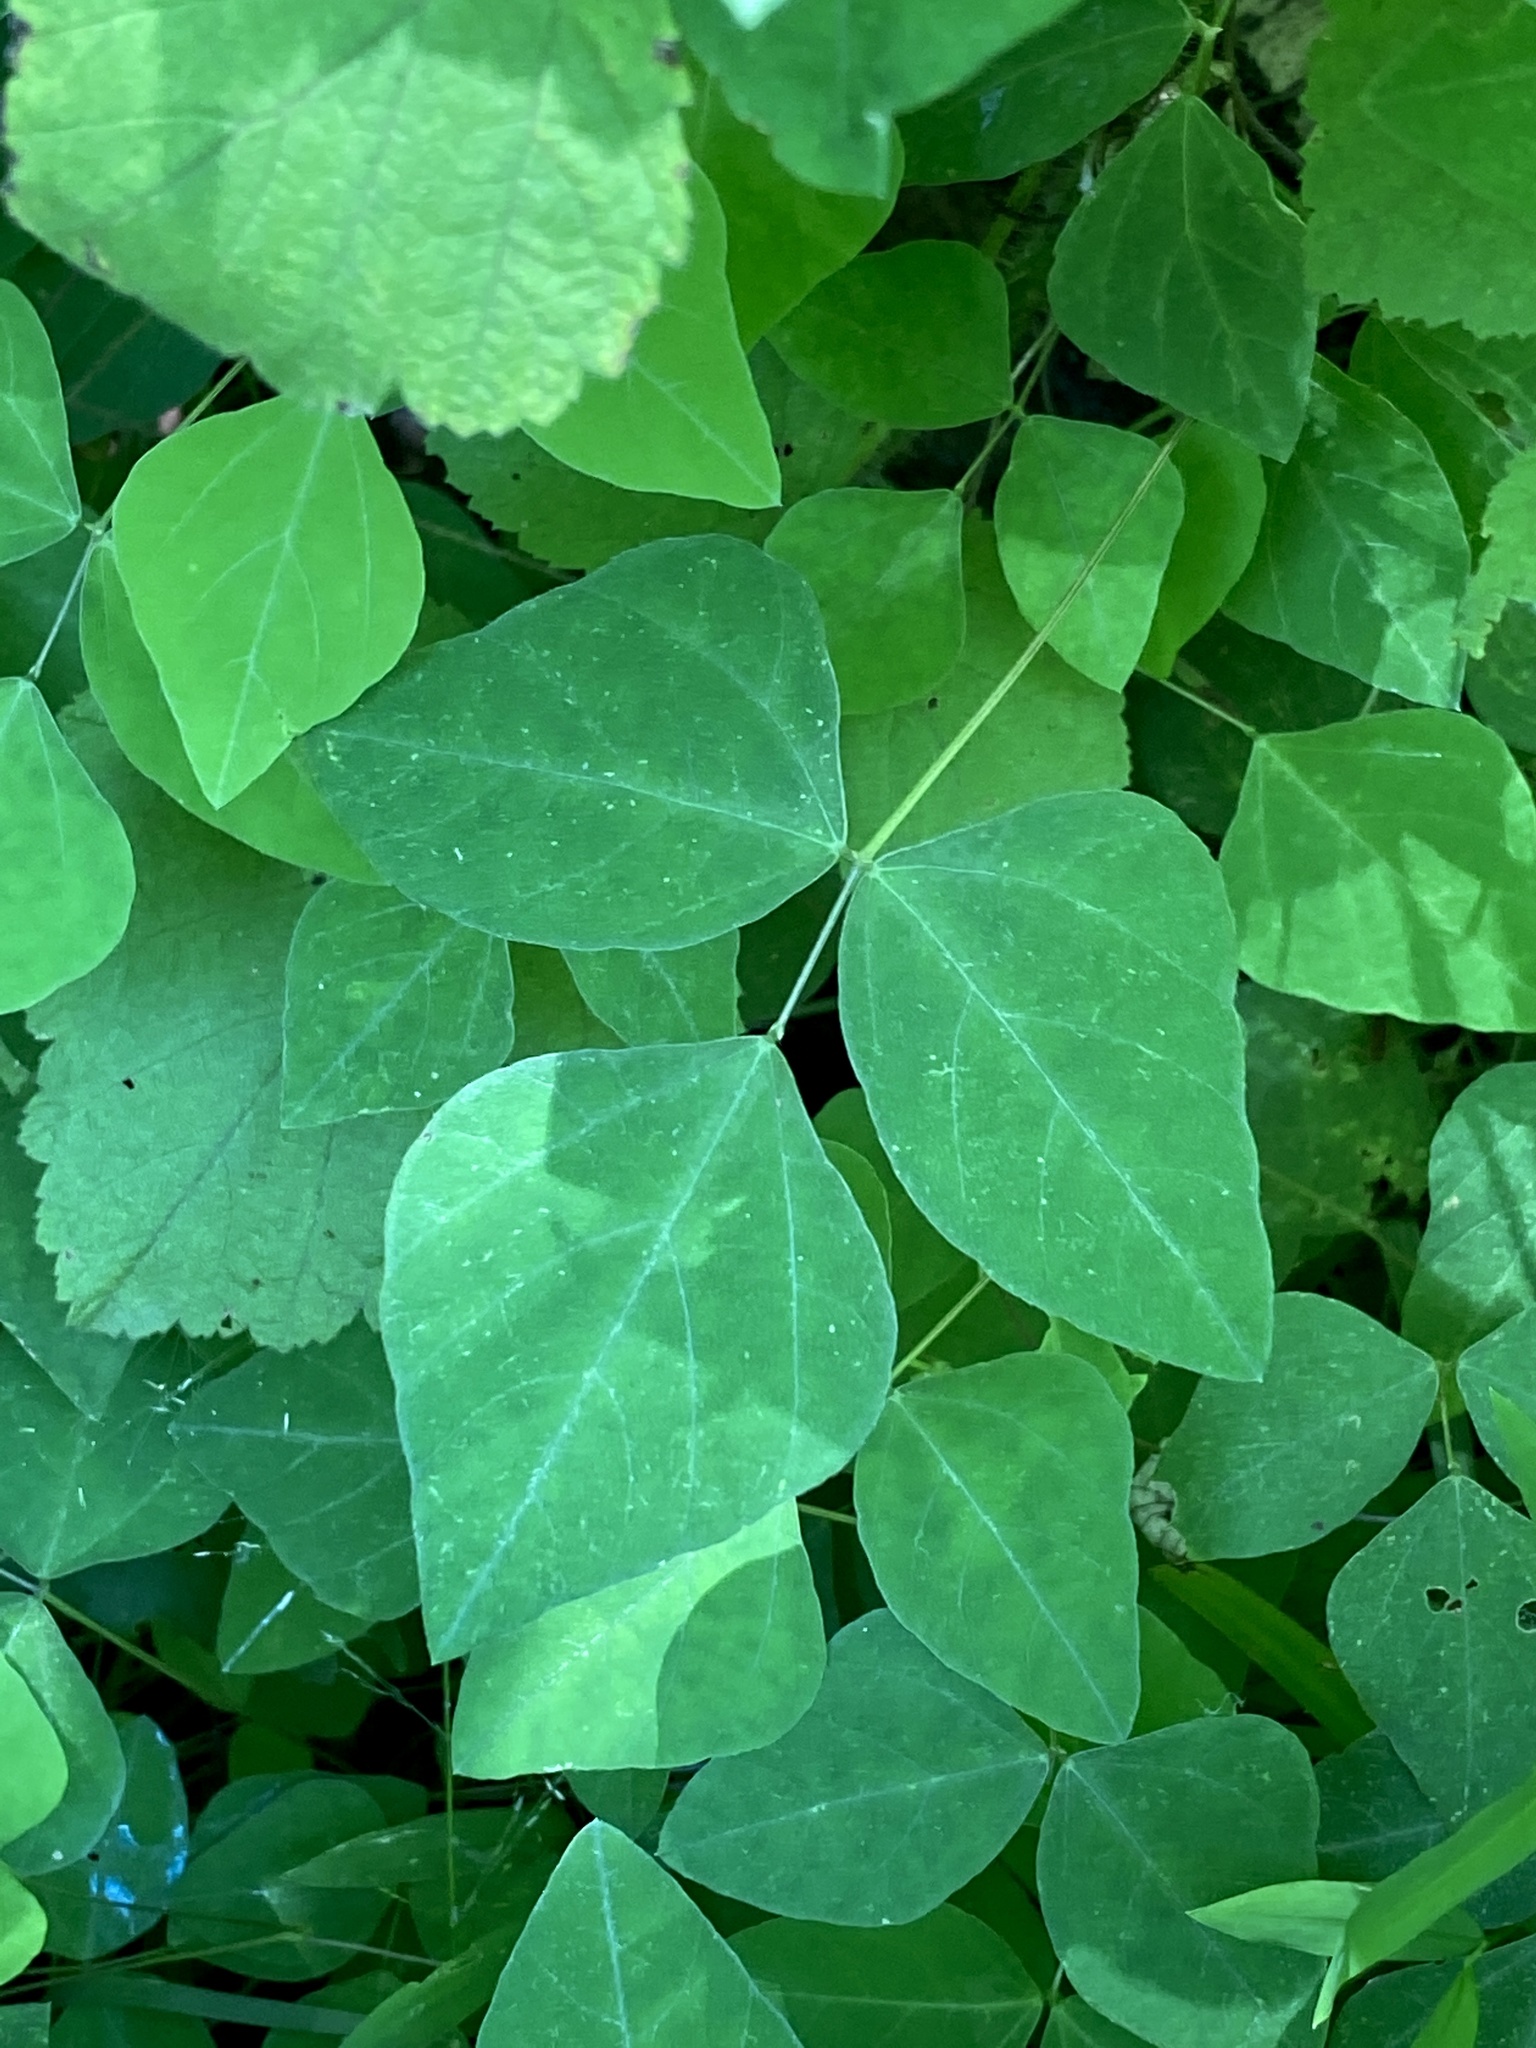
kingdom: Plantae
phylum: Tracheophyta
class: Magnoliopsida
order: Fabales
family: Fabaceae
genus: Amphicarpaea
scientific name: Amphicarpaea bracteata
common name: American hog peanut
